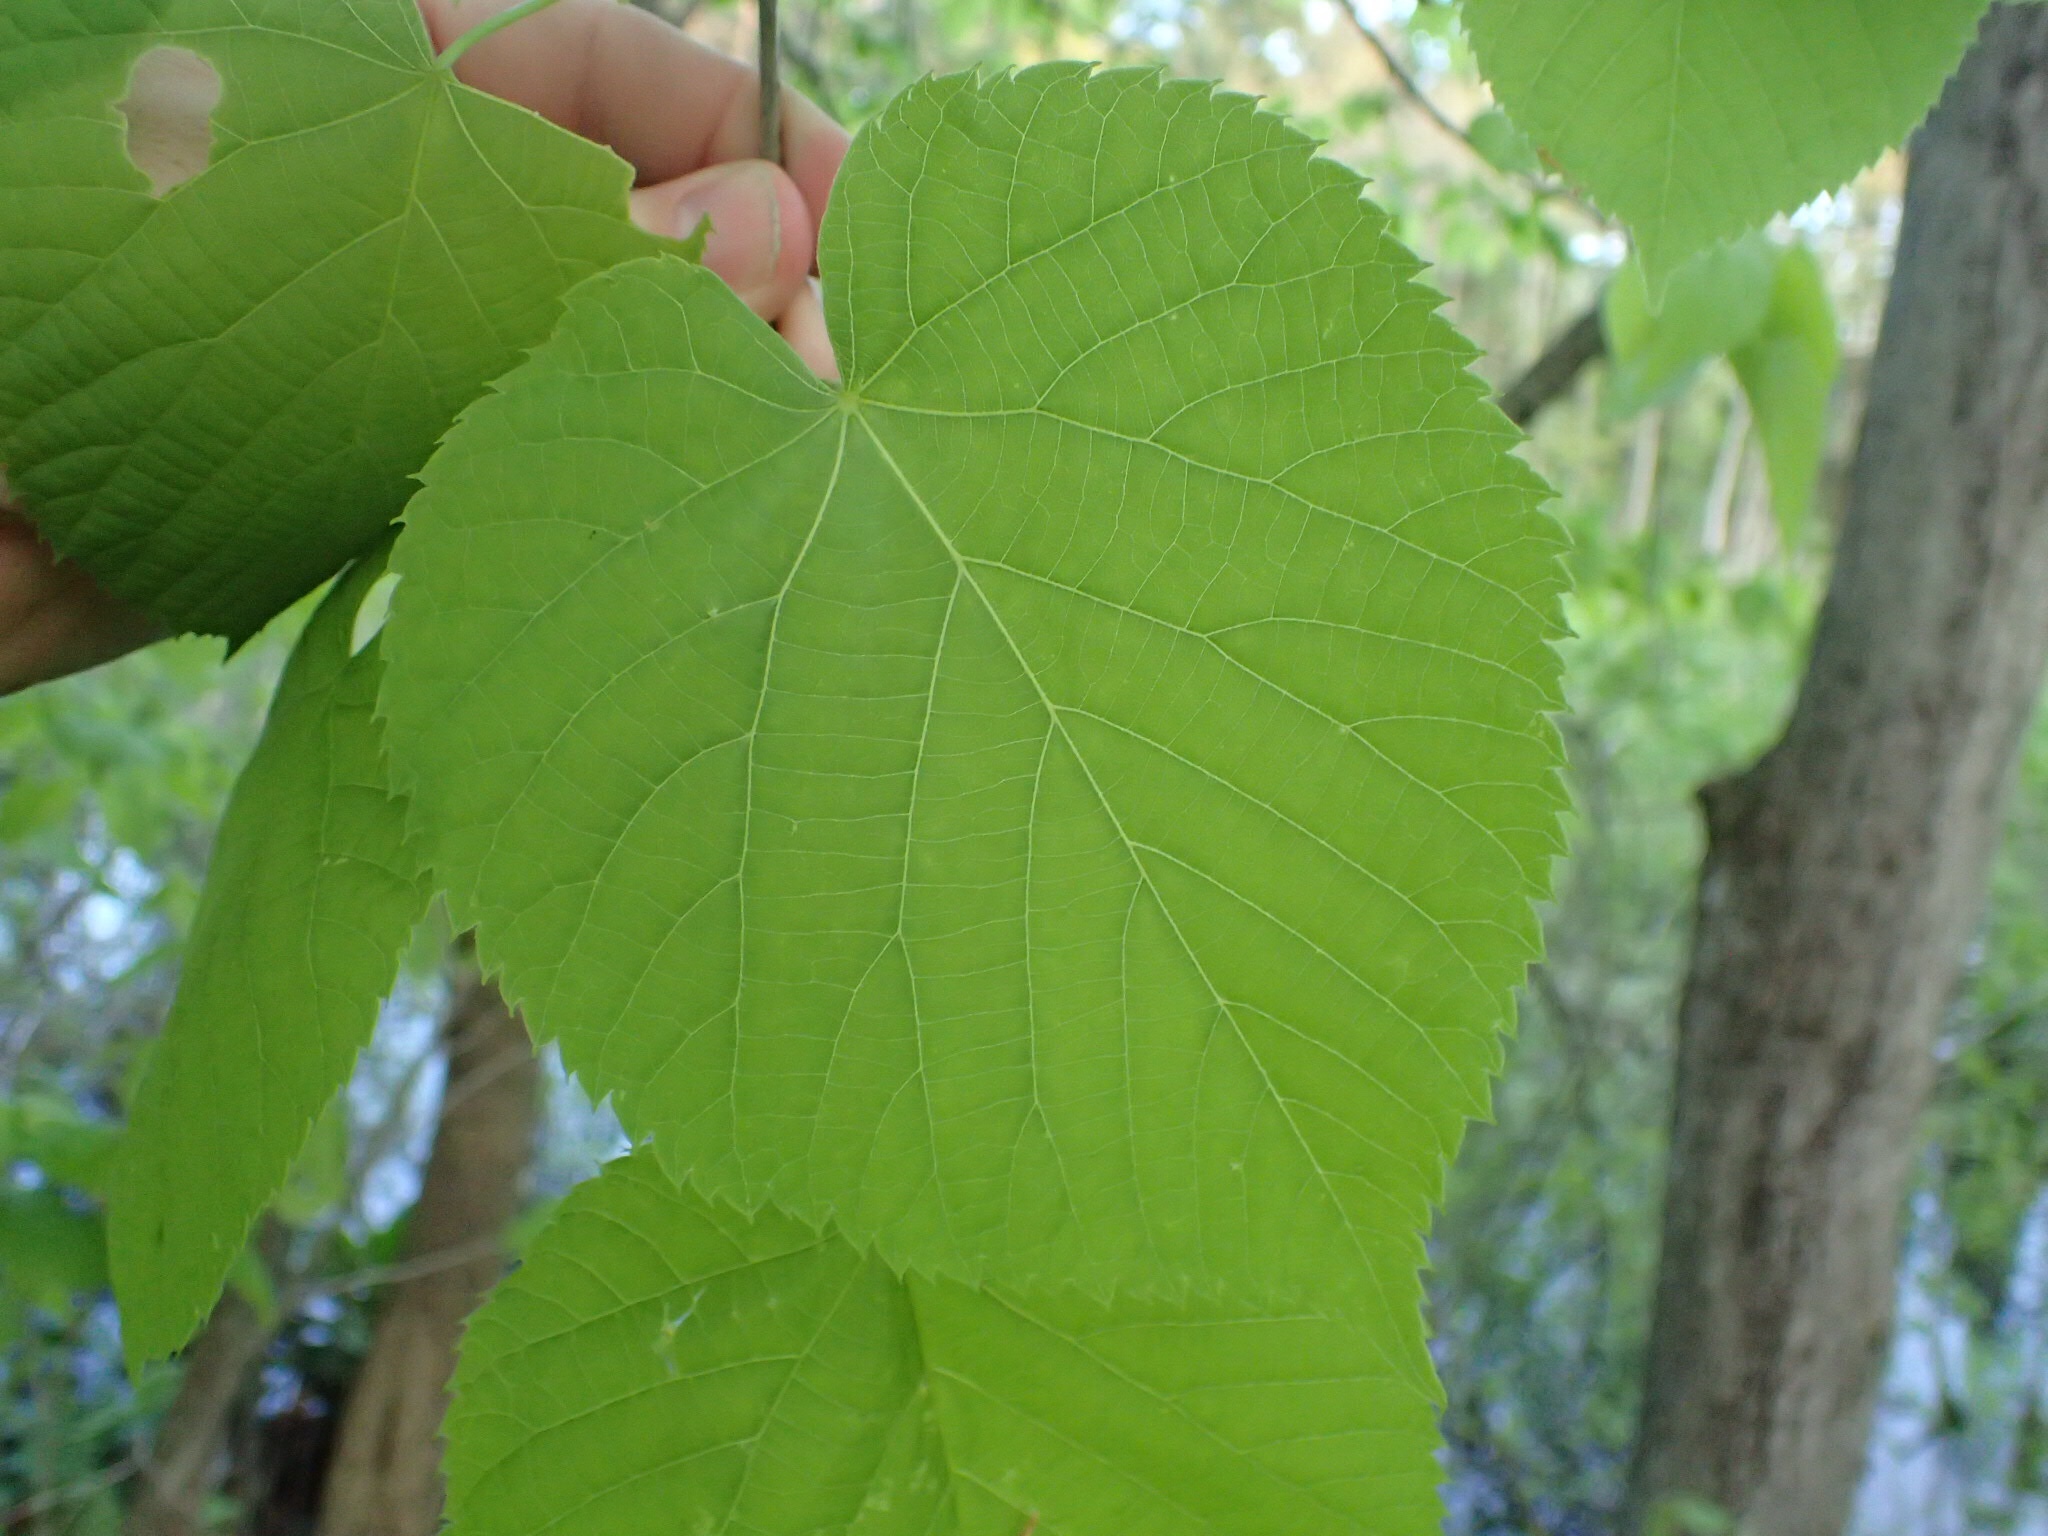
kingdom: Plantae
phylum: Tracheophyta
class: Magnoliopsida
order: Malvales
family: Malvaceae
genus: Tilia
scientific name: Tilia americana
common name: Basswood
